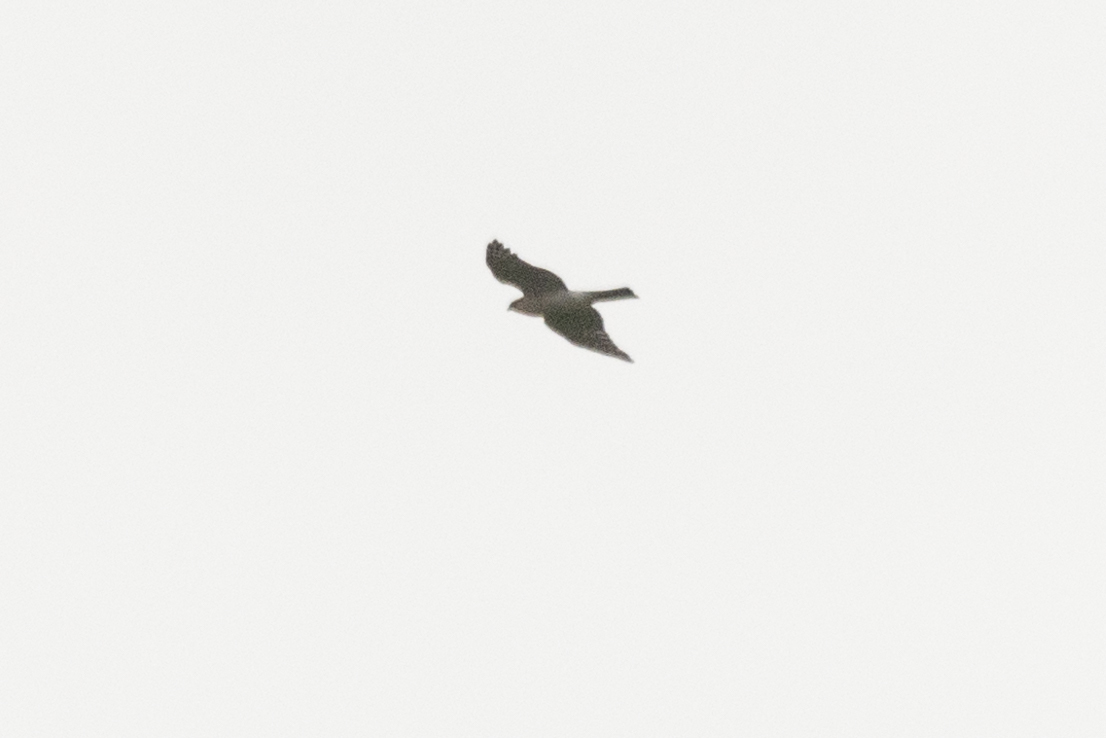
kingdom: Animalia
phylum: Chordata
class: Aves
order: Accipitriformes
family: Accipitridae
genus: Accipiter
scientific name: Accipiter nisus
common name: Eurasian sparrowhawk
